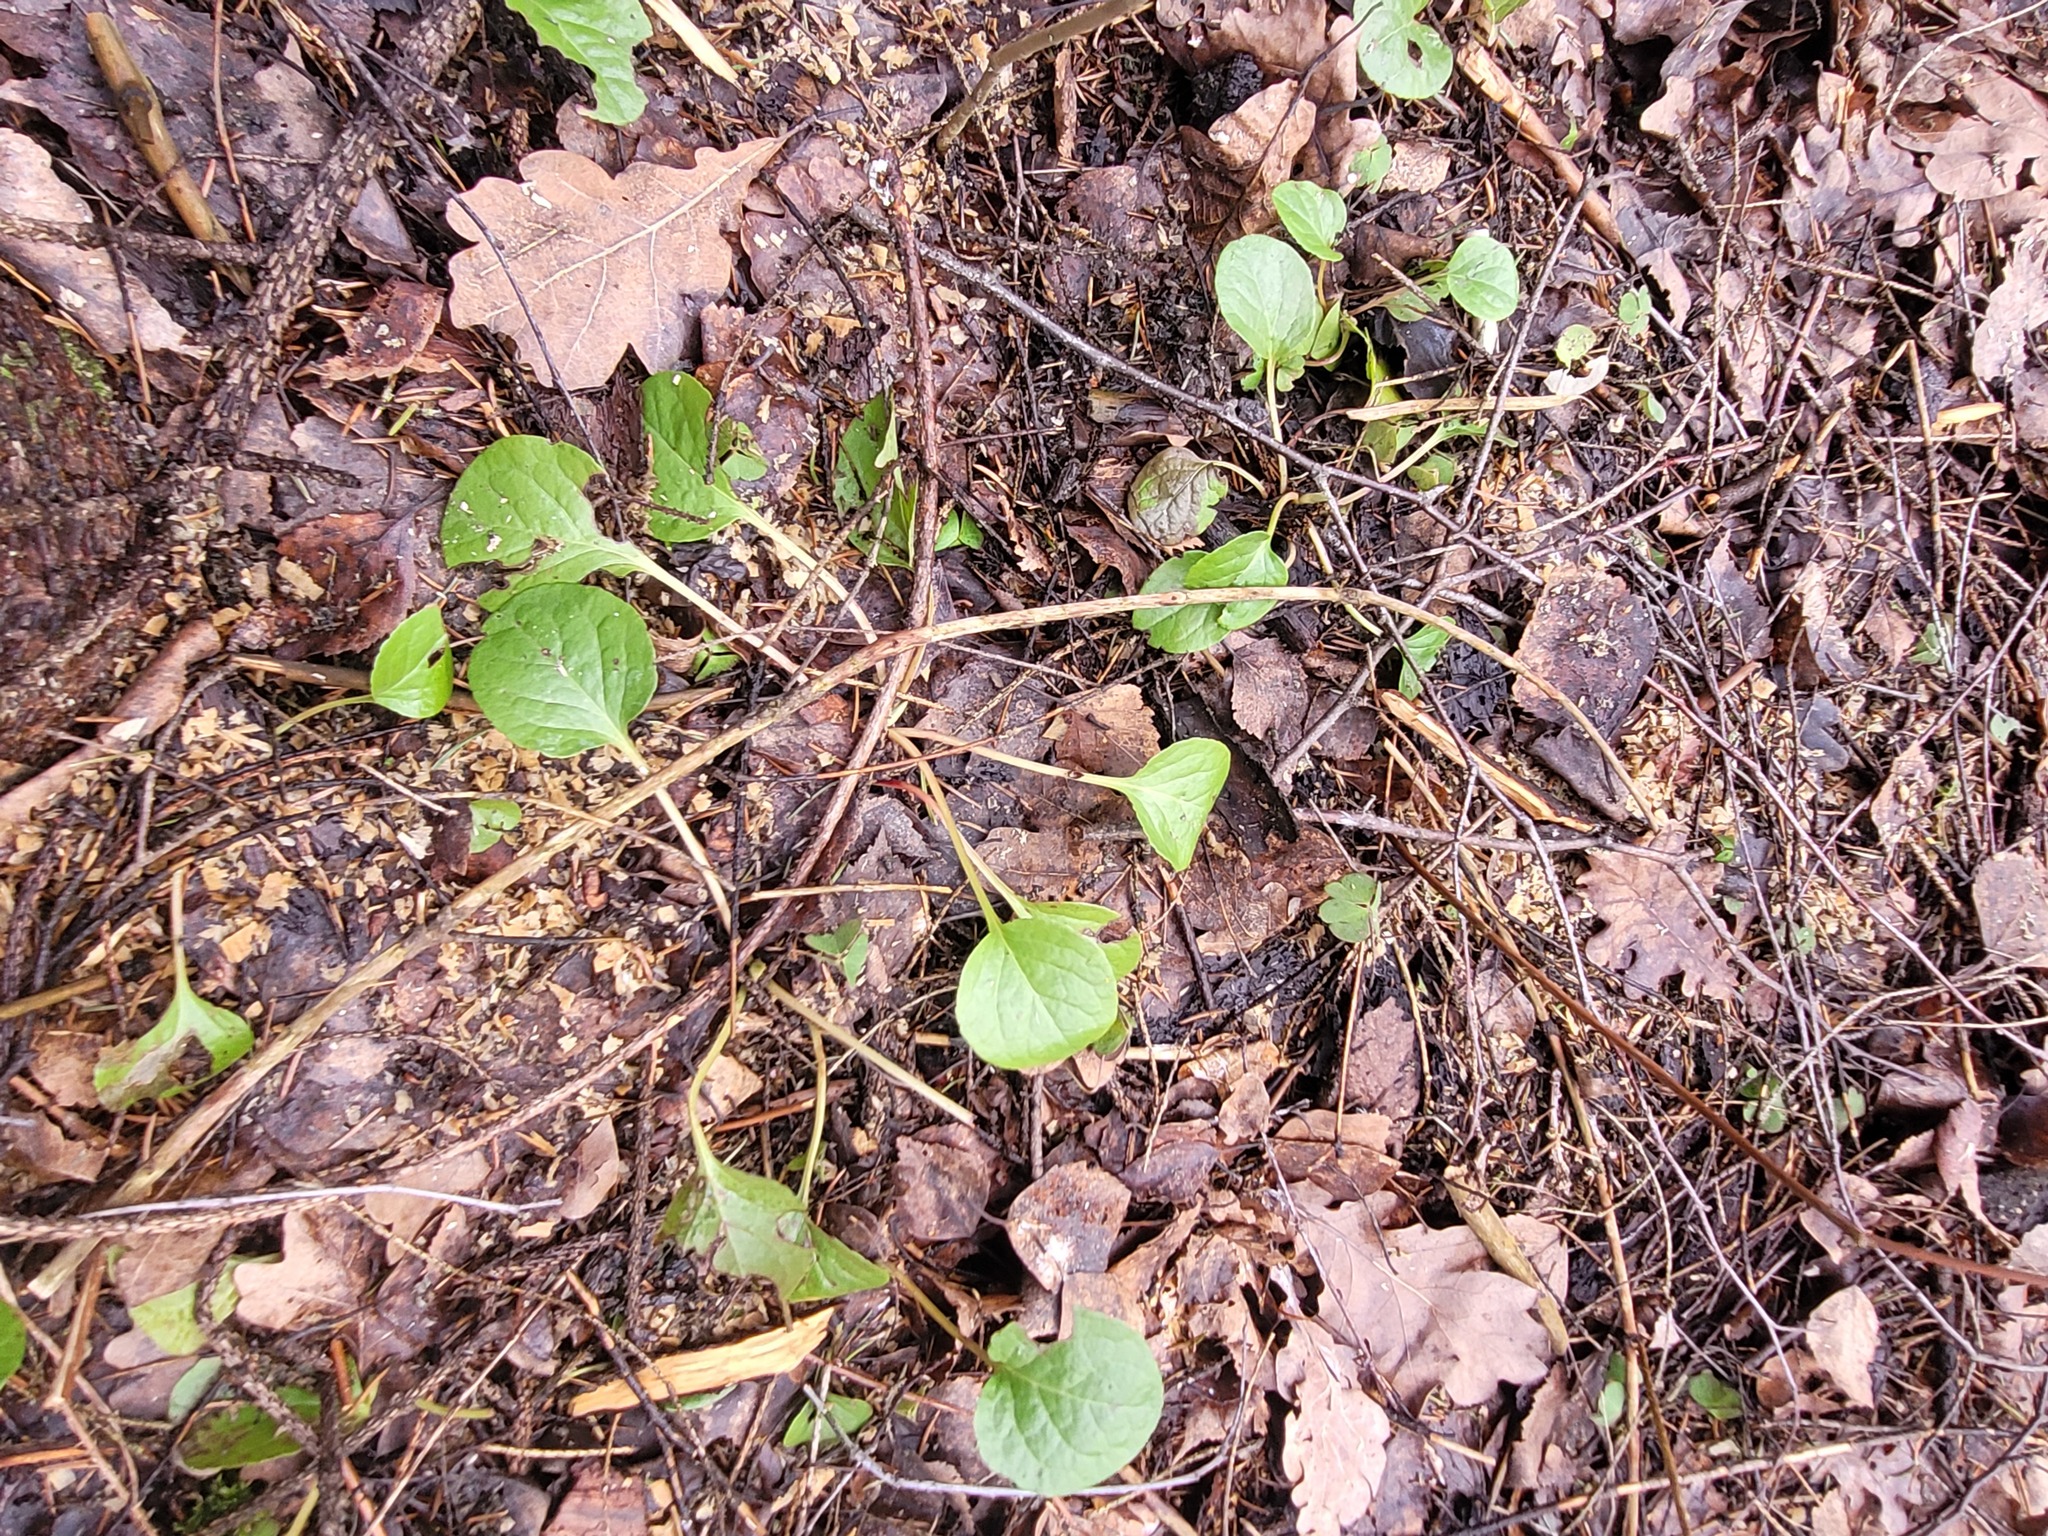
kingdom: Plantae
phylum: Tracheophyta
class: Magnoliopsida
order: Ericales
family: Ericaceae
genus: Pyrola
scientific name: Pyrola
